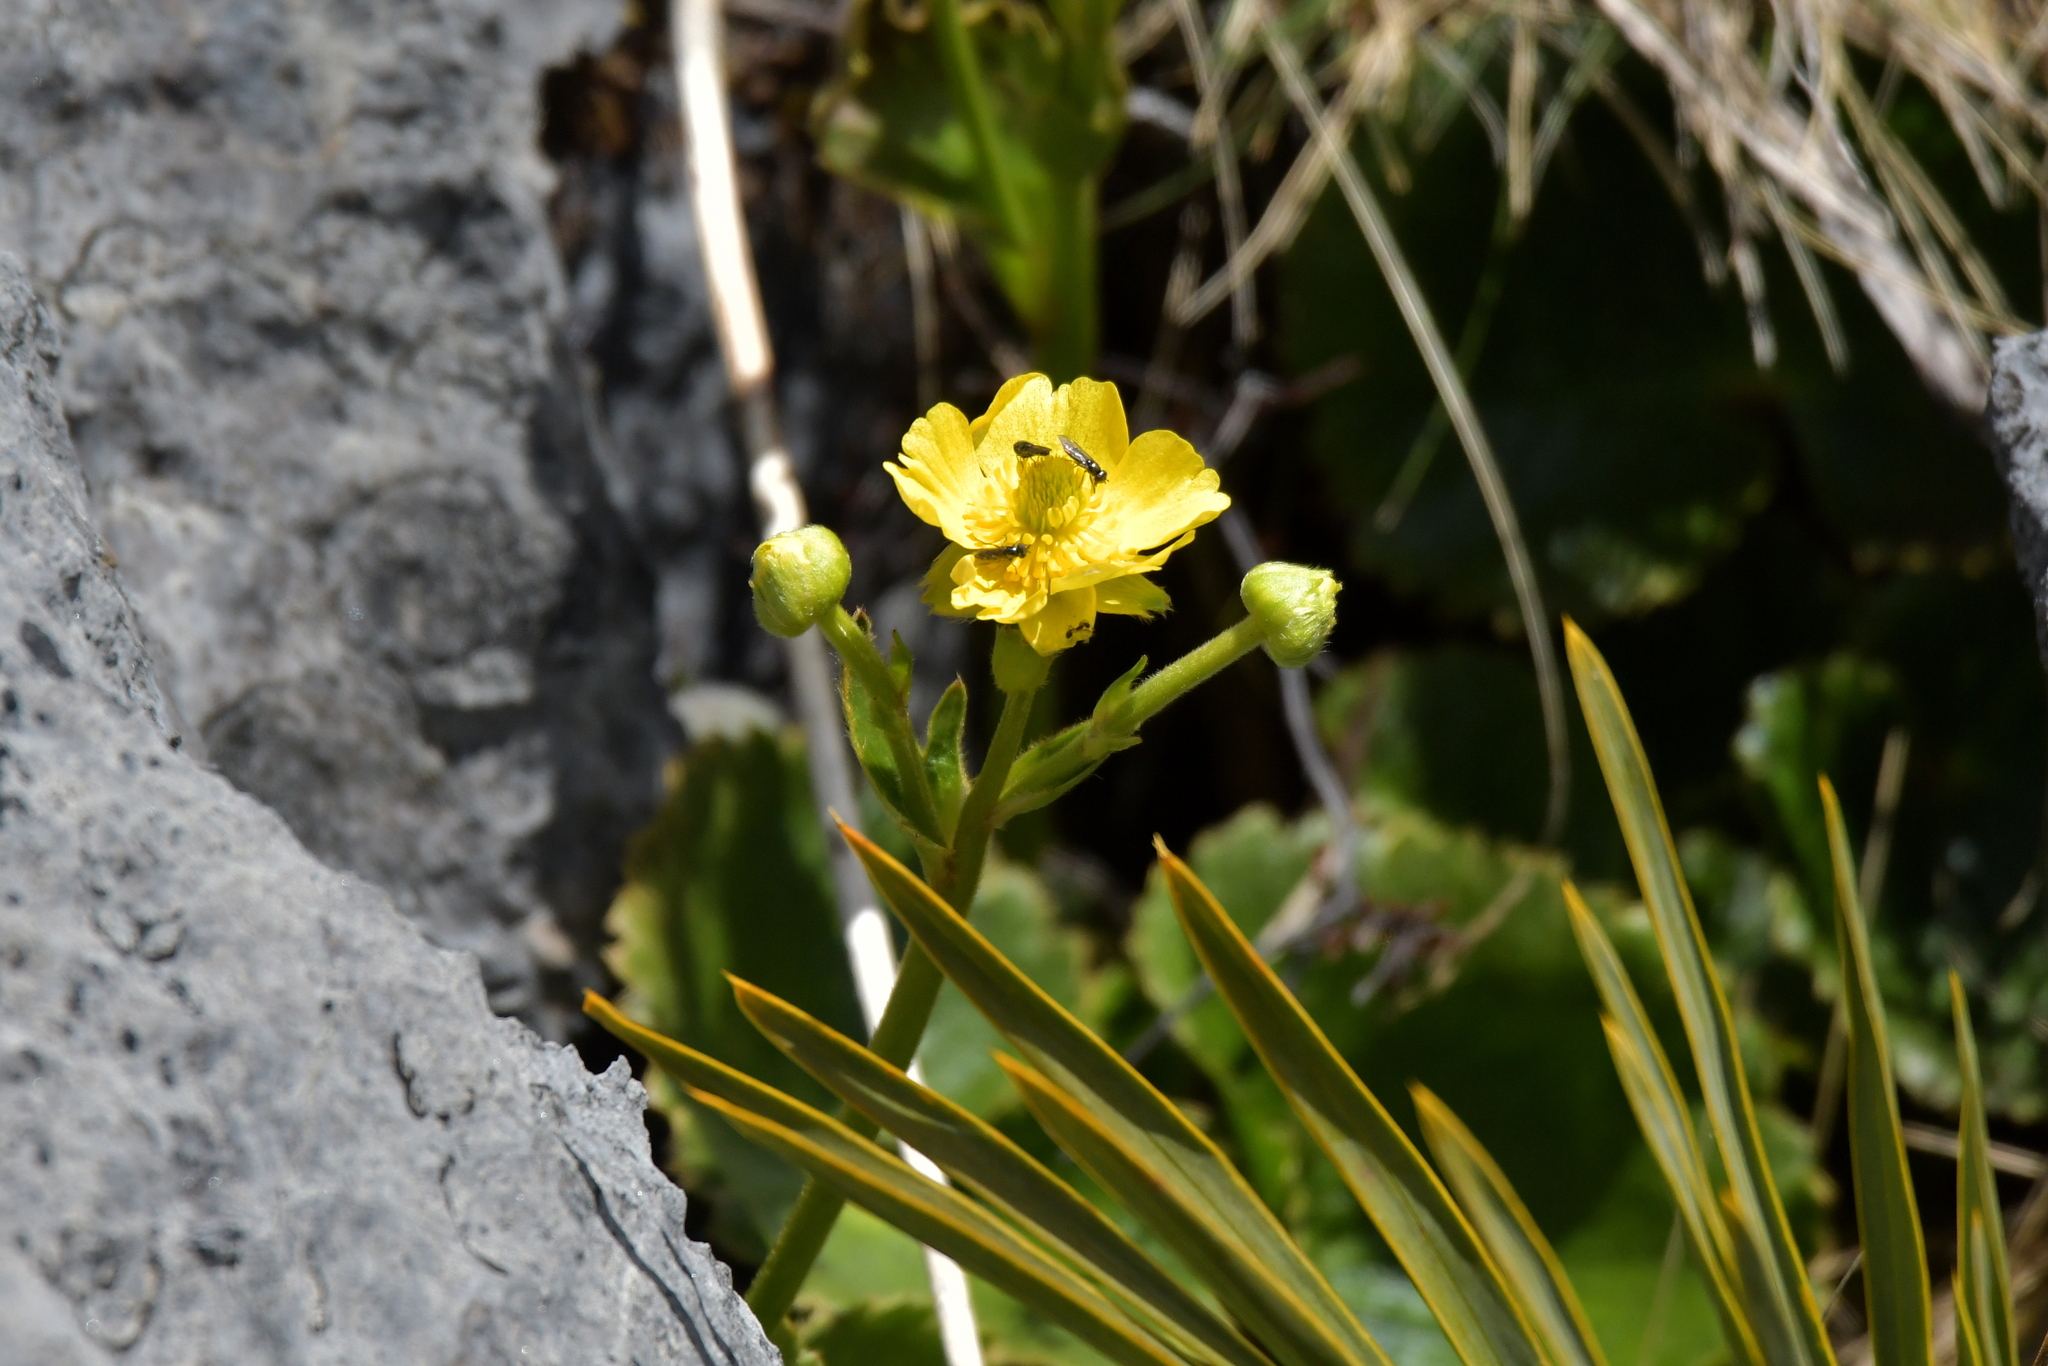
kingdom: Plantae
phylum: Tracheophyta
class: Magnoliopsida
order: Ranunculales
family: Ranunculaceae
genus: Ranunculus
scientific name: Ranunculus insignis
